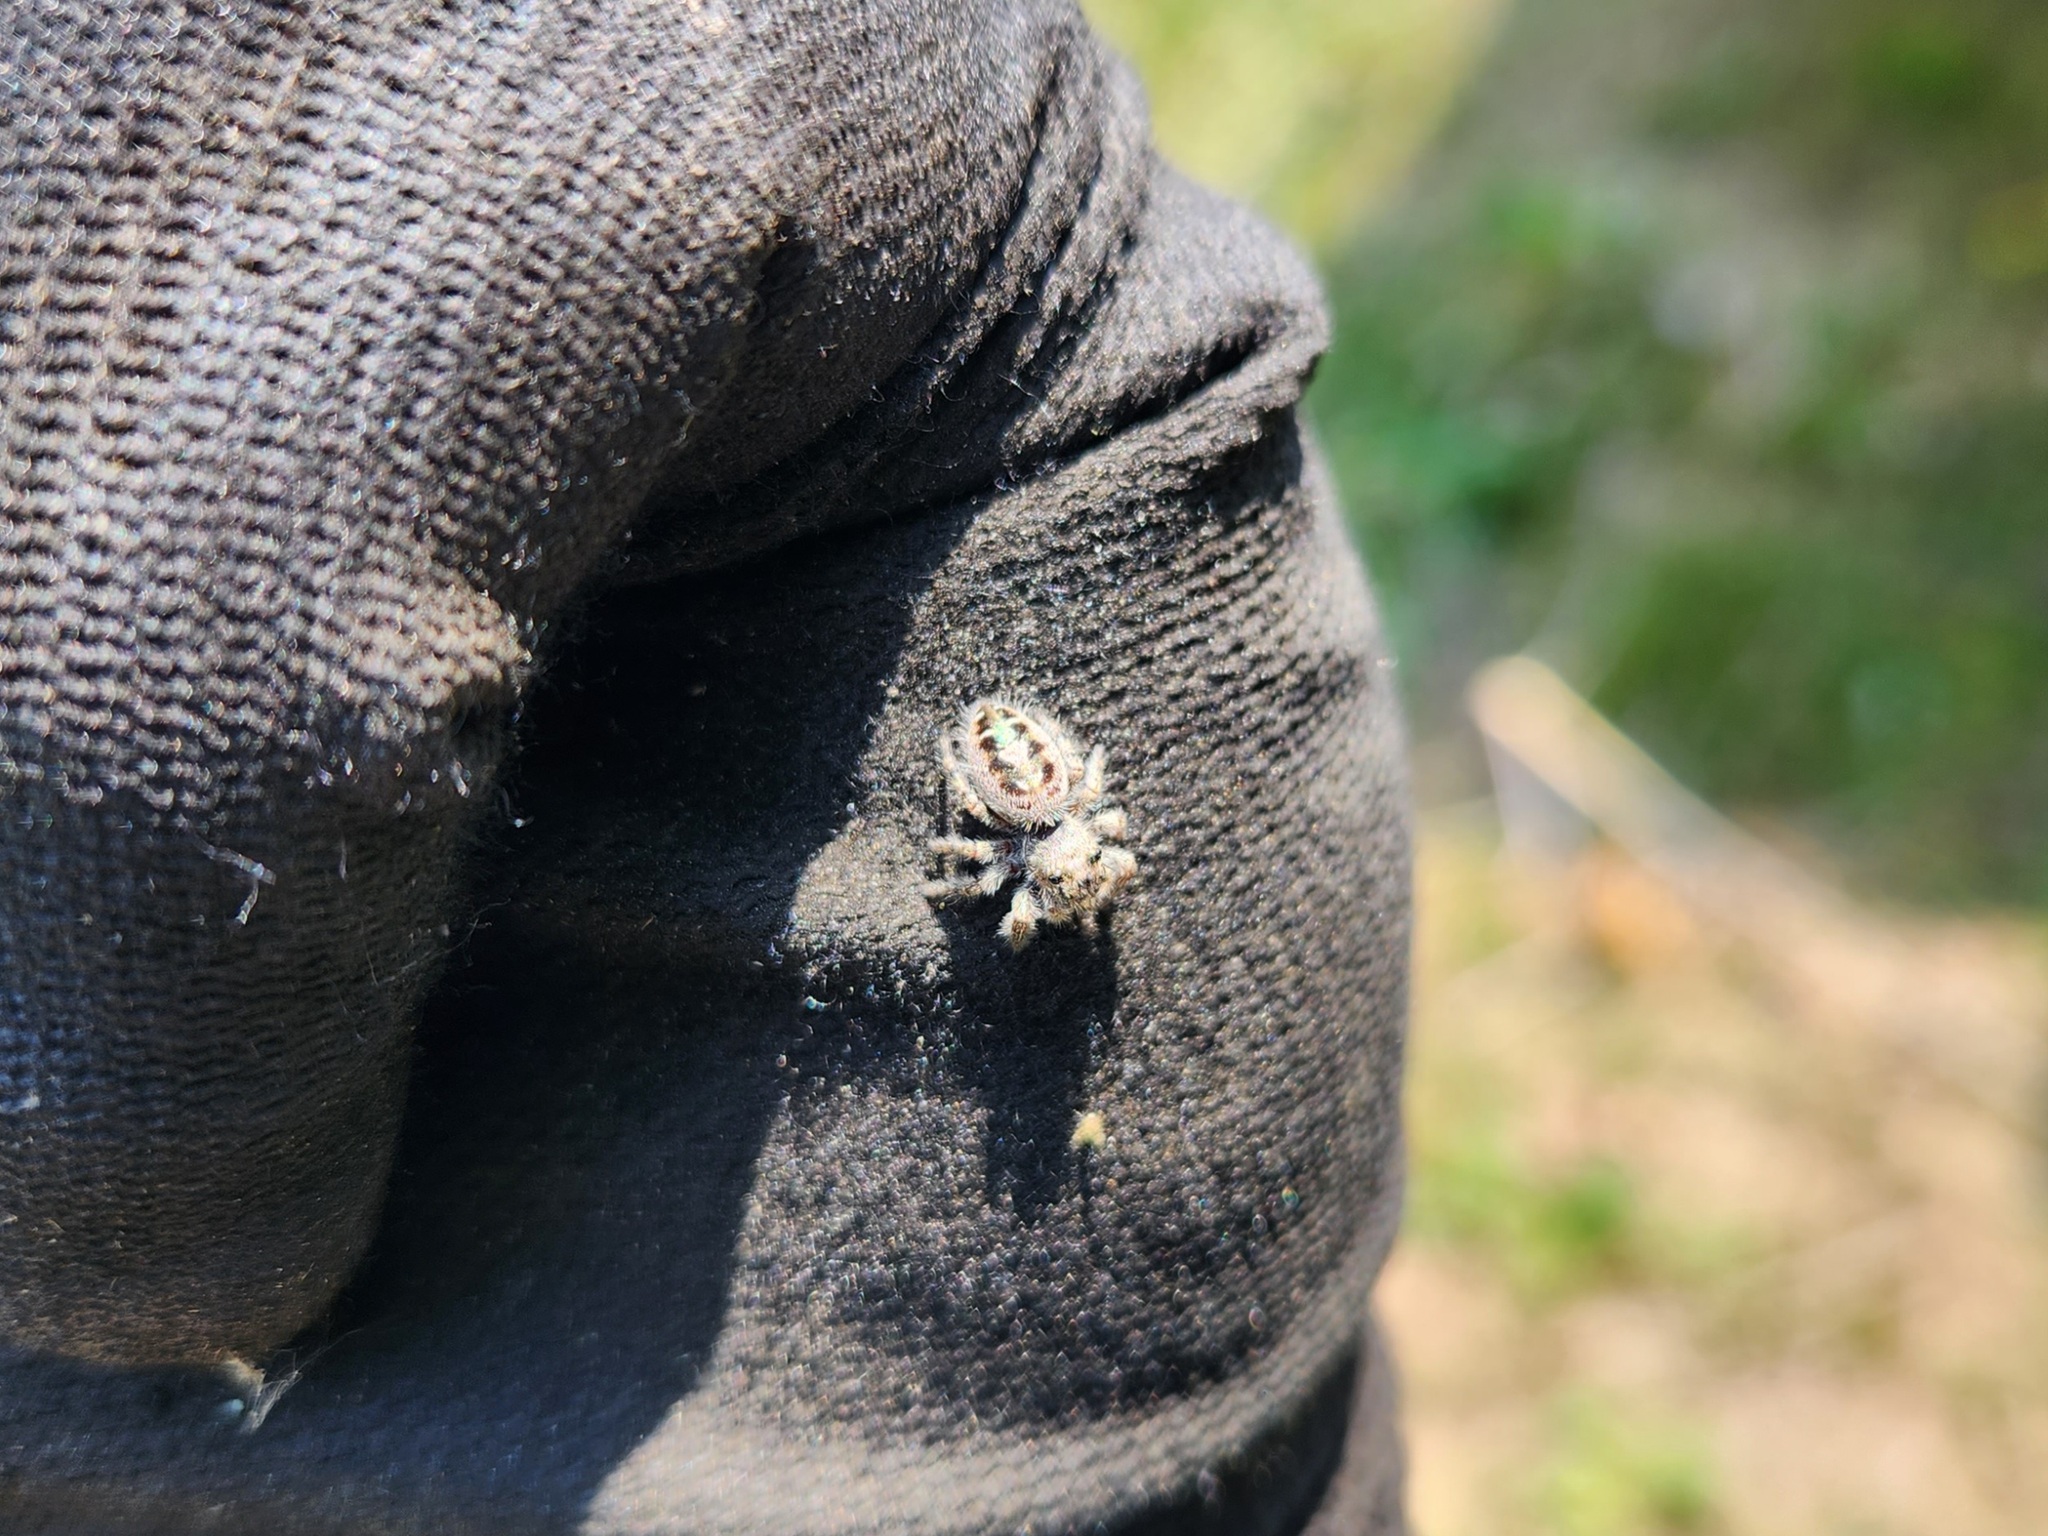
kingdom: Animalia
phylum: Arthropoda
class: Arachnida
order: Araneae
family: Salticidae
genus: Phidippus
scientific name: Phidippus putnami
